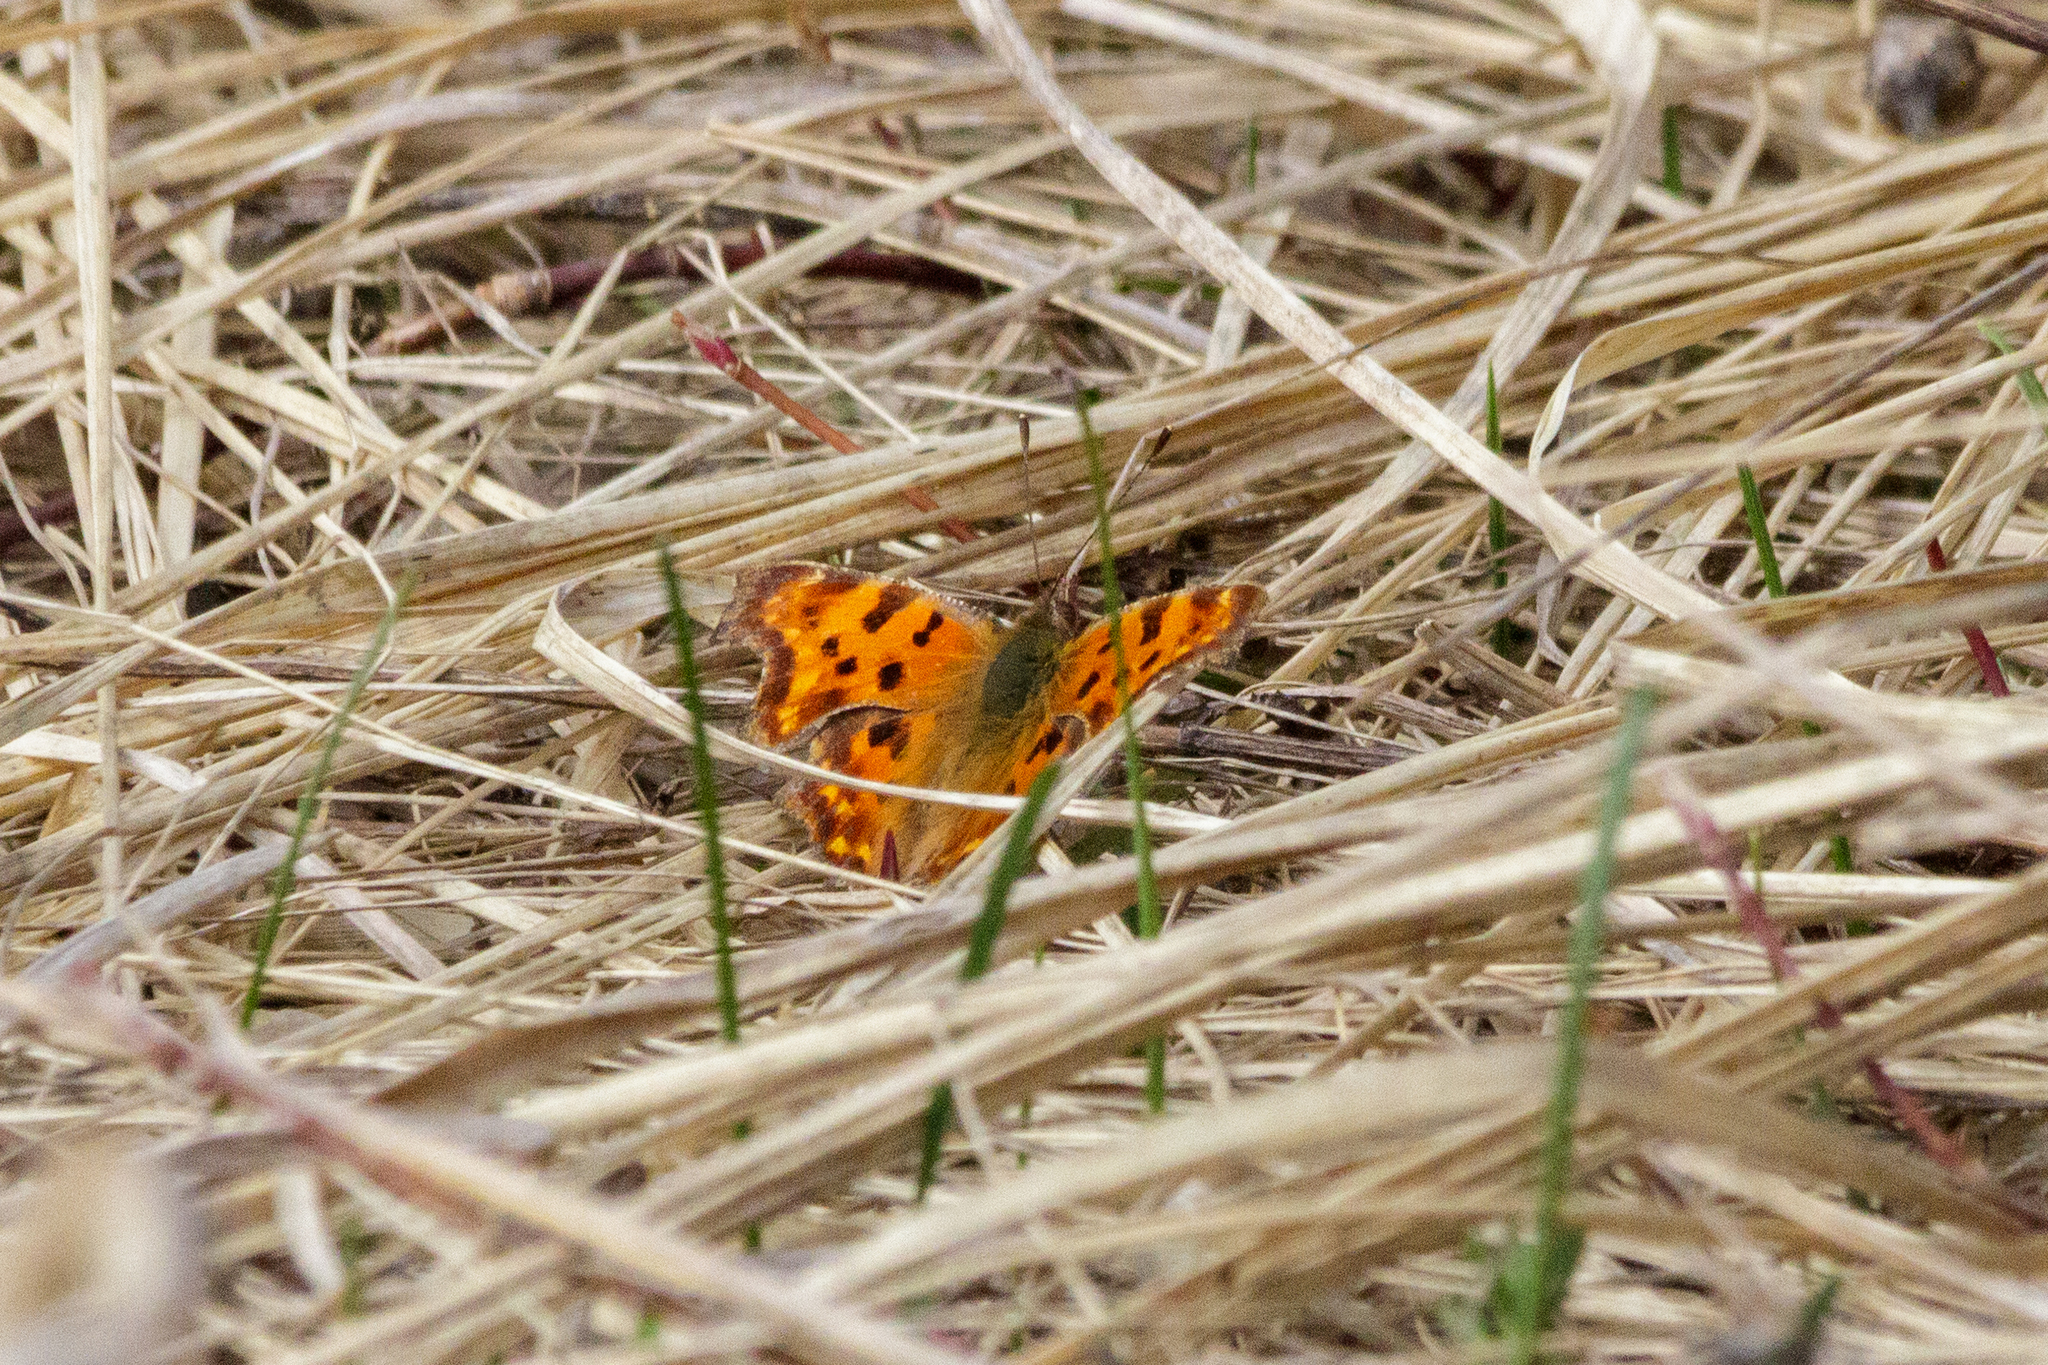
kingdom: Animalia
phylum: Arthropoda
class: Insecta
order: Lepidoptera
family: Nymphalidae
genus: Polygonia
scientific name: Polygonia c-album
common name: Comma
